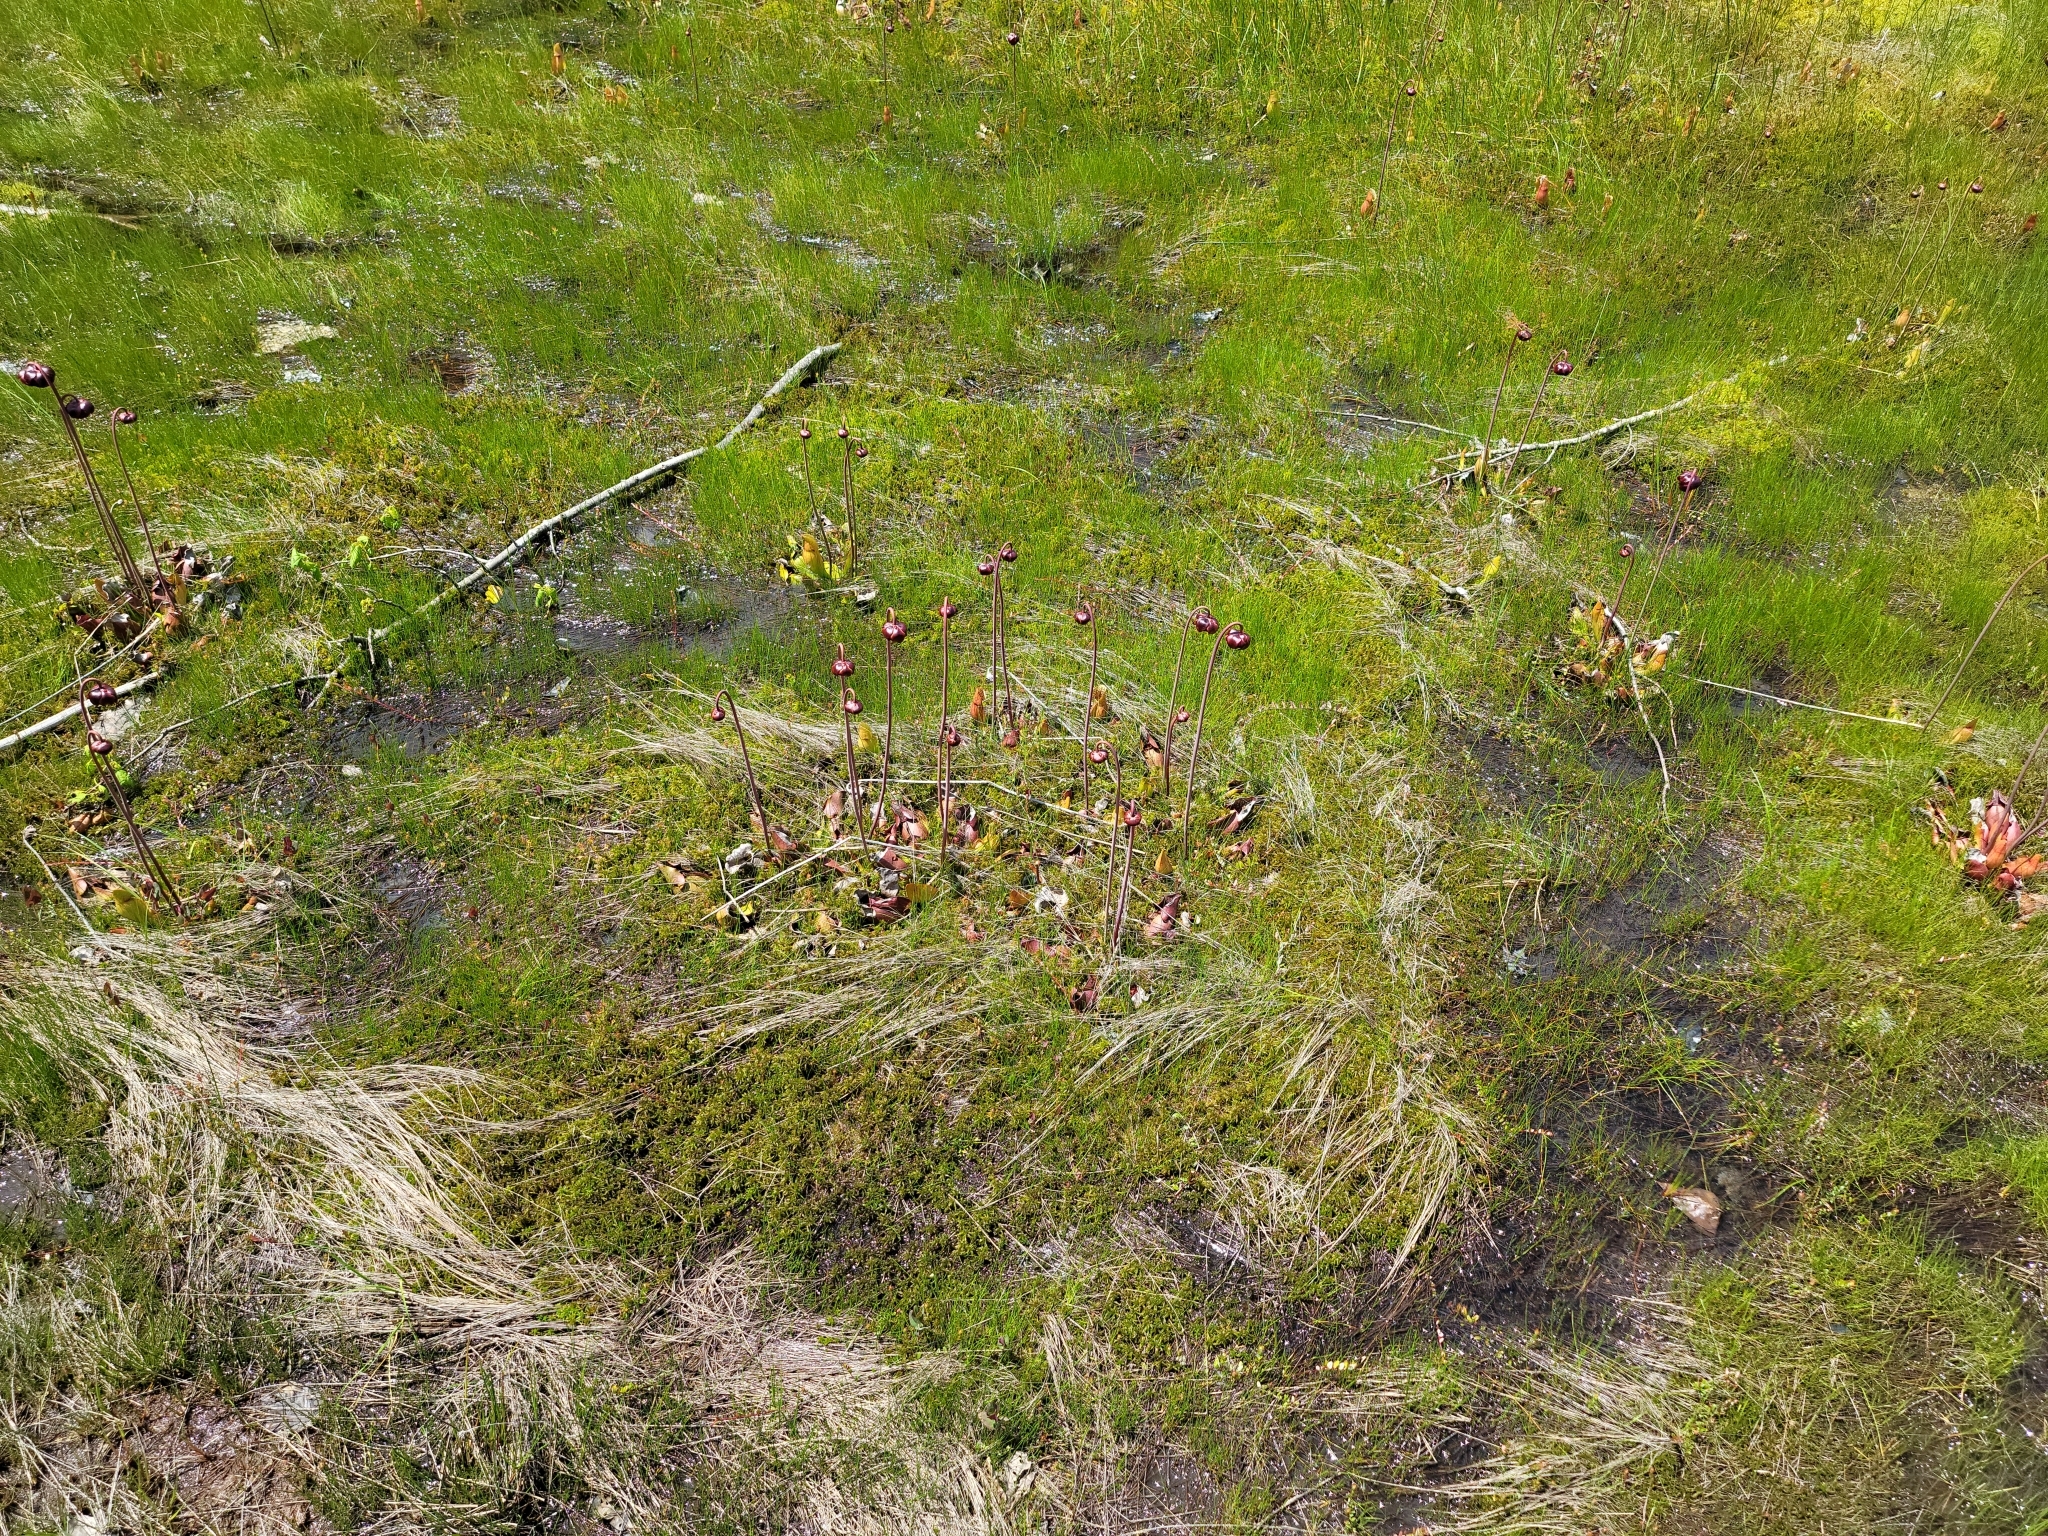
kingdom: Plantae
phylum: Tracheophyta
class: Magnoliopsida
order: Ericales
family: Sarraceniaceae
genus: Sarracenia
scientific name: Sarracenia purpurea
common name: Pitcherplant
